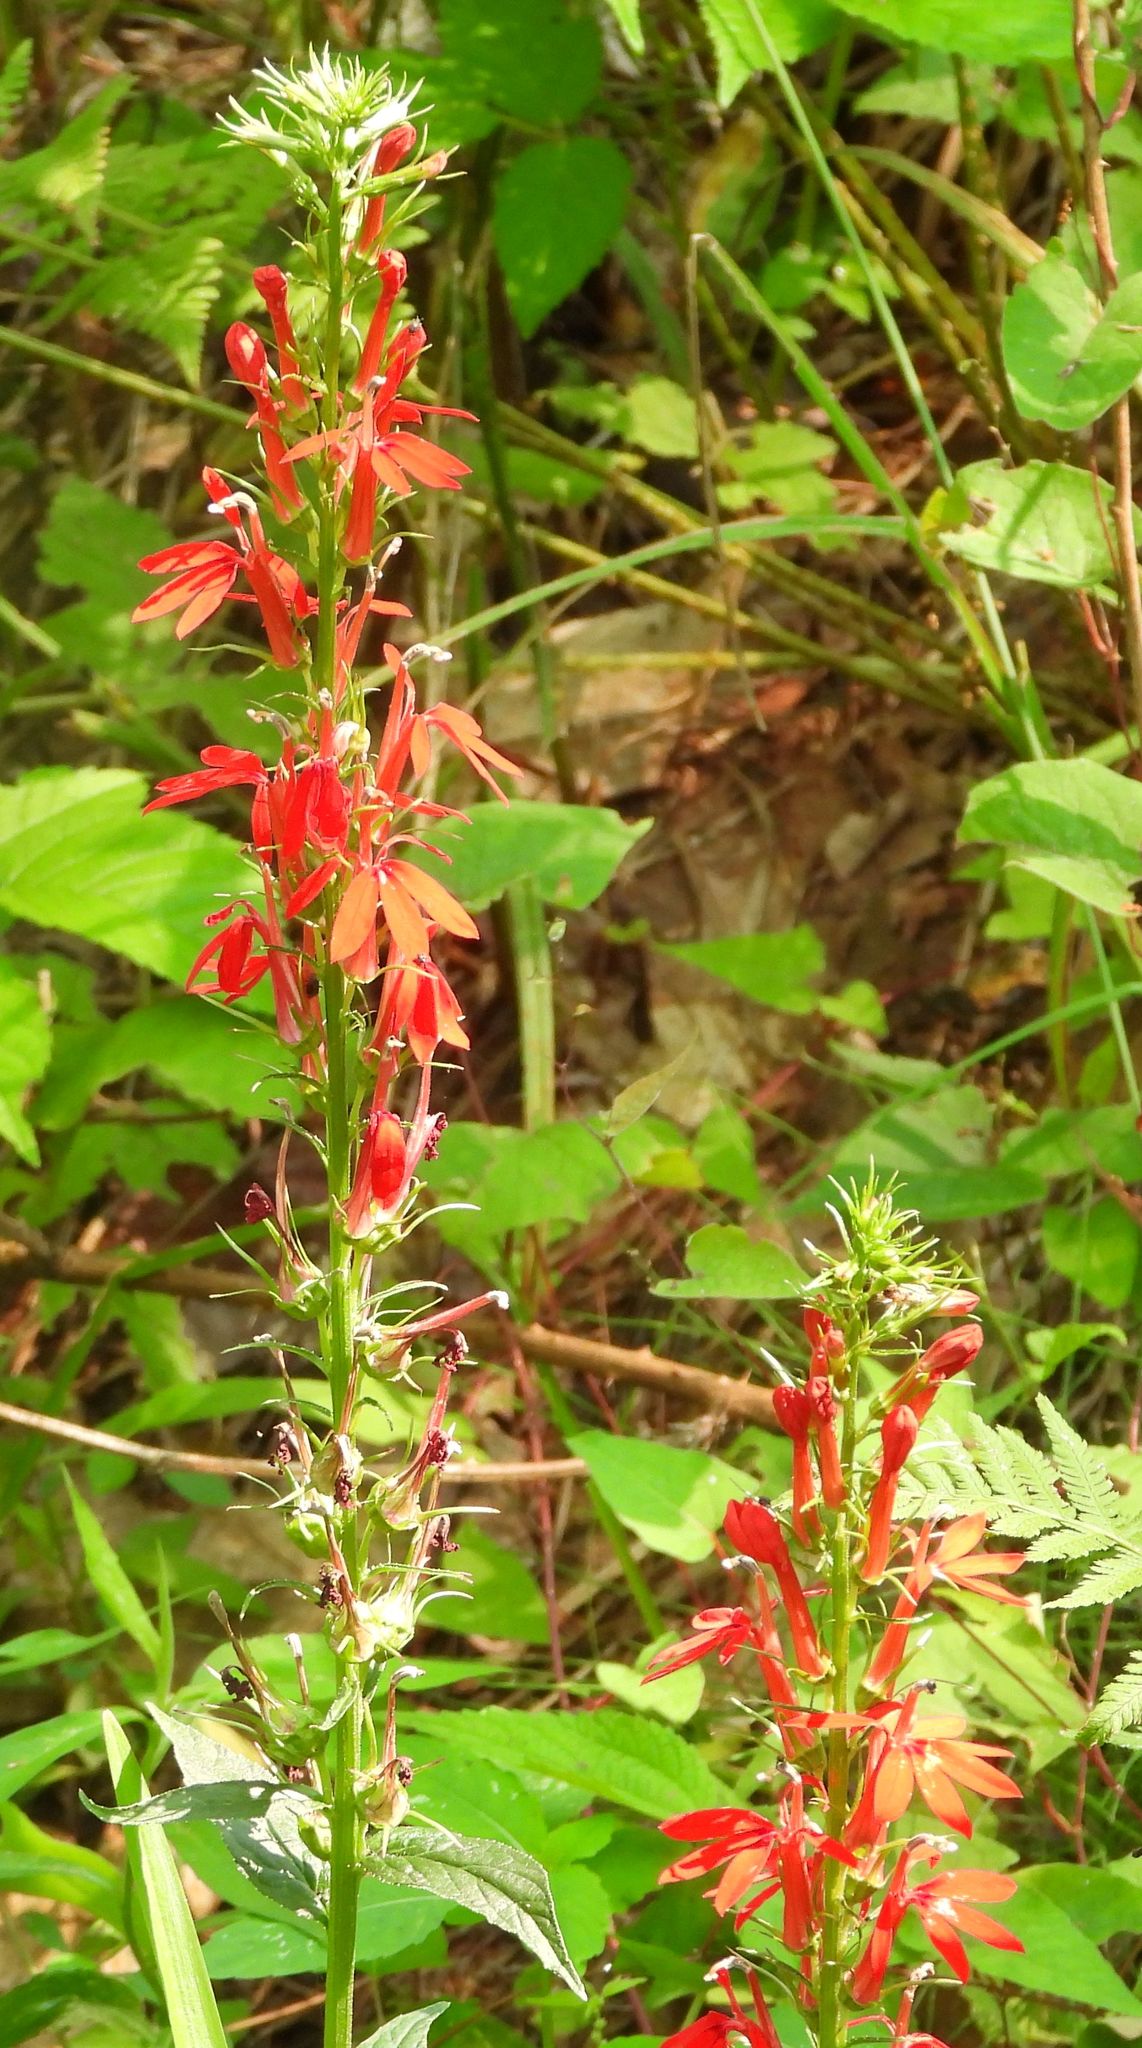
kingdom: Plantae
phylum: Tracheophyta
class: Magnoliopsida
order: Asterales
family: Campanulaceae
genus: Lobelia
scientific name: Lobelia cardinalis
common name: Cardinal flower
